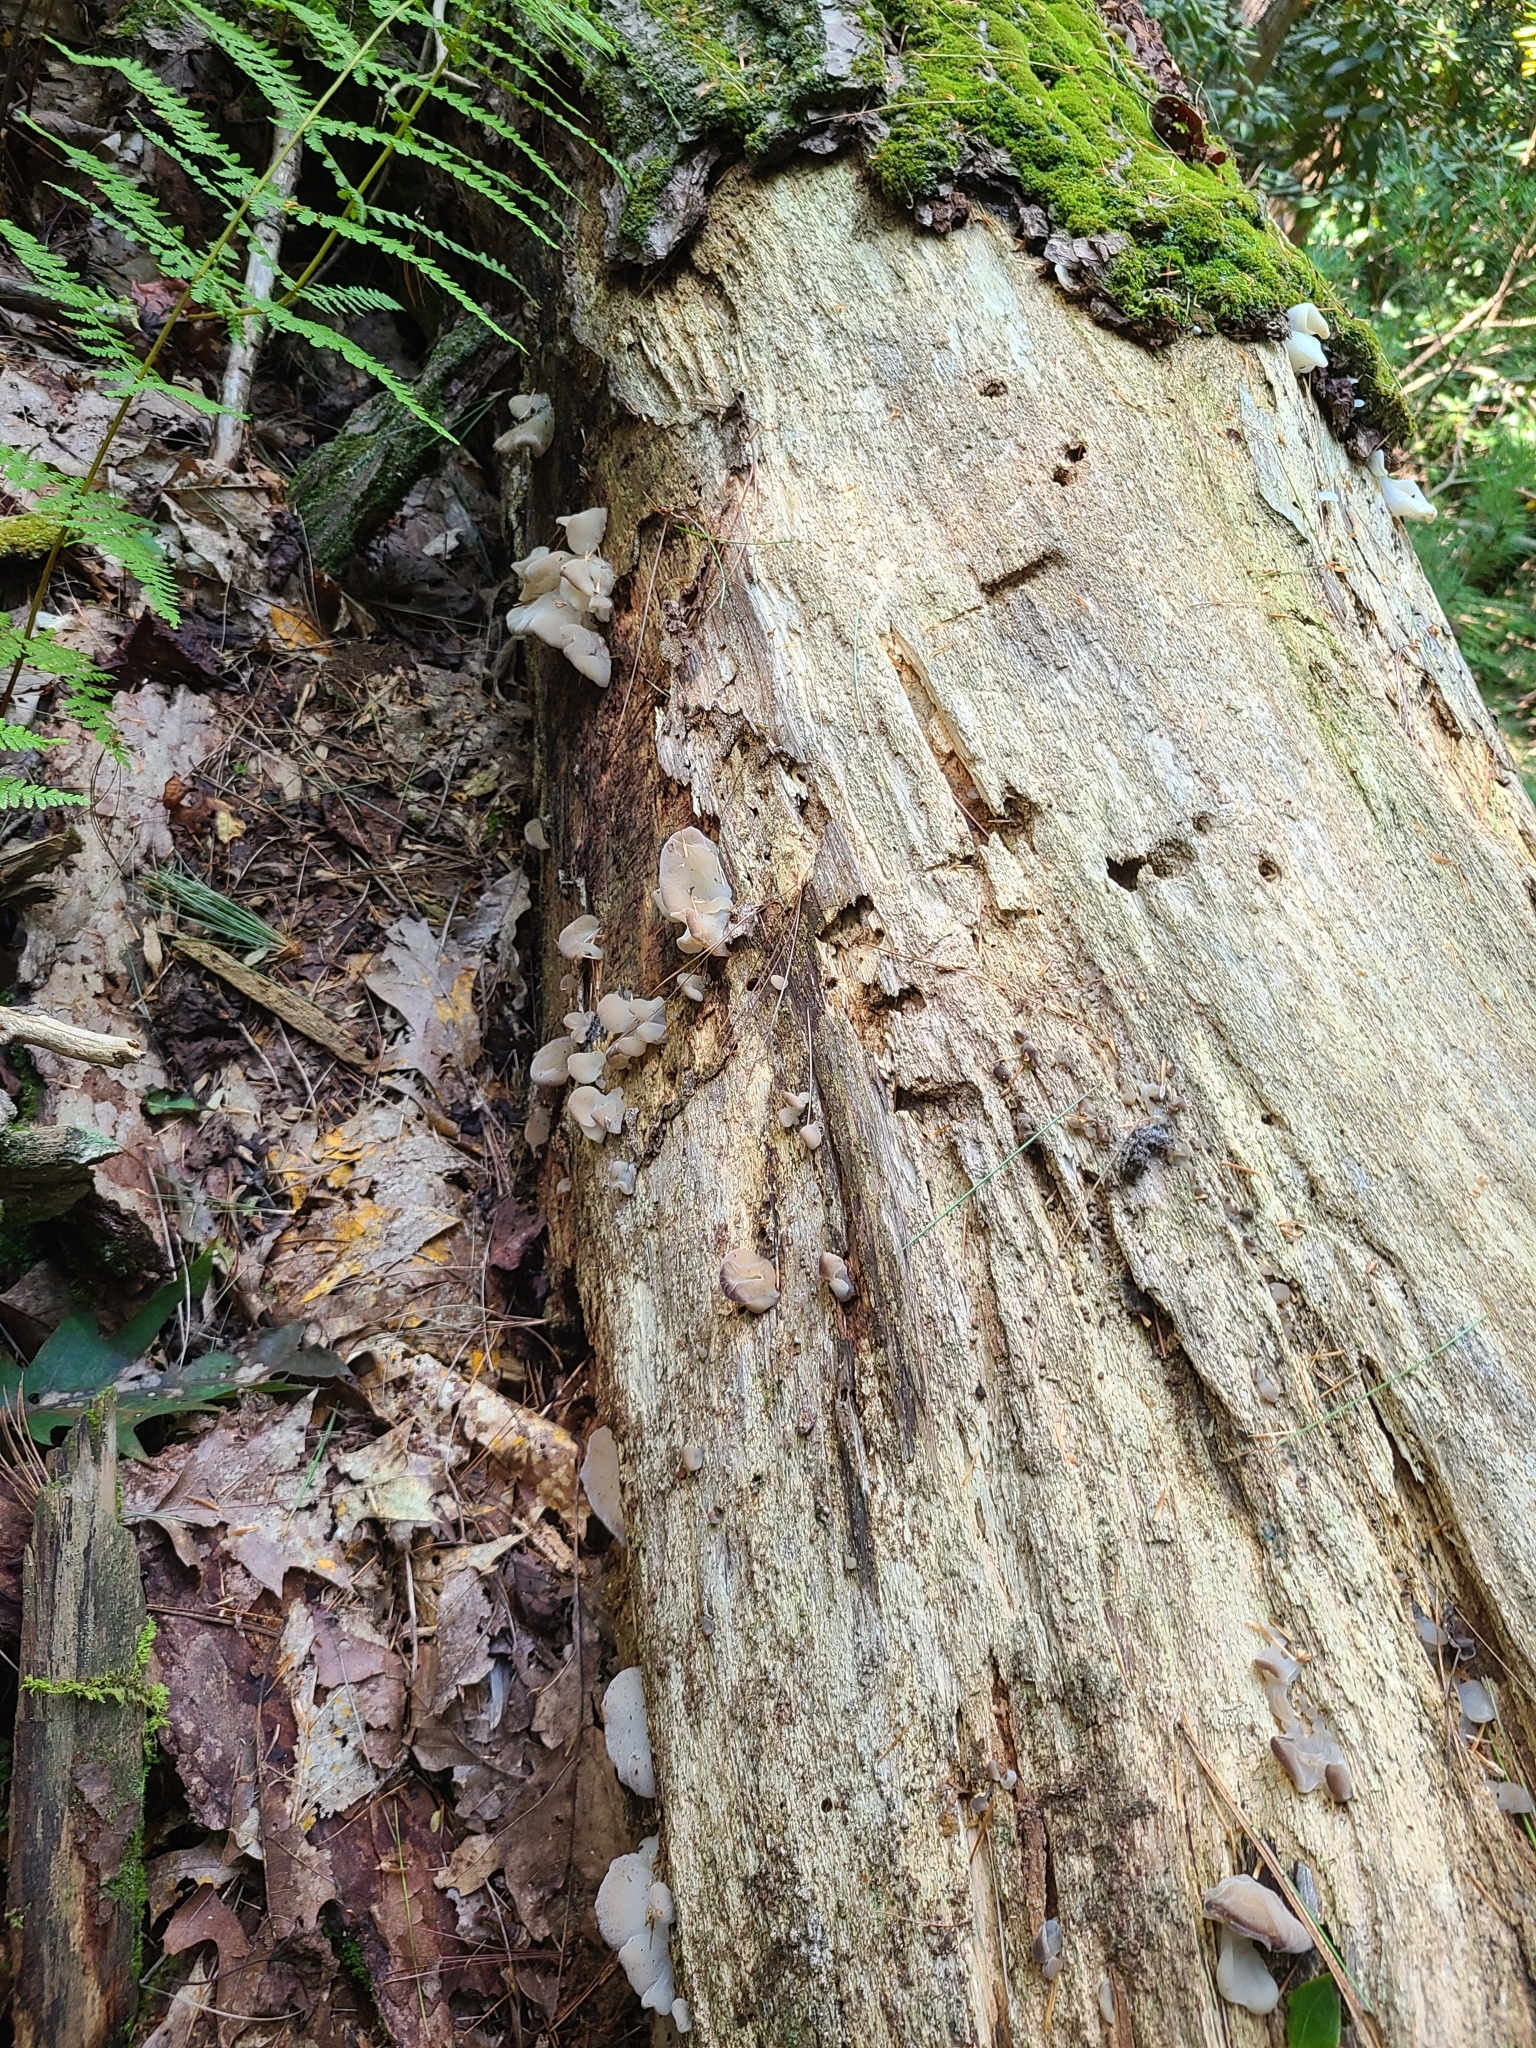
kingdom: Fungi
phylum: Basidiomycota
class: Agaricomycetes
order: Auriculariales
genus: Pseudohydnum
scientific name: Pseudohydnum gelatinosum
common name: Jelly tongue
